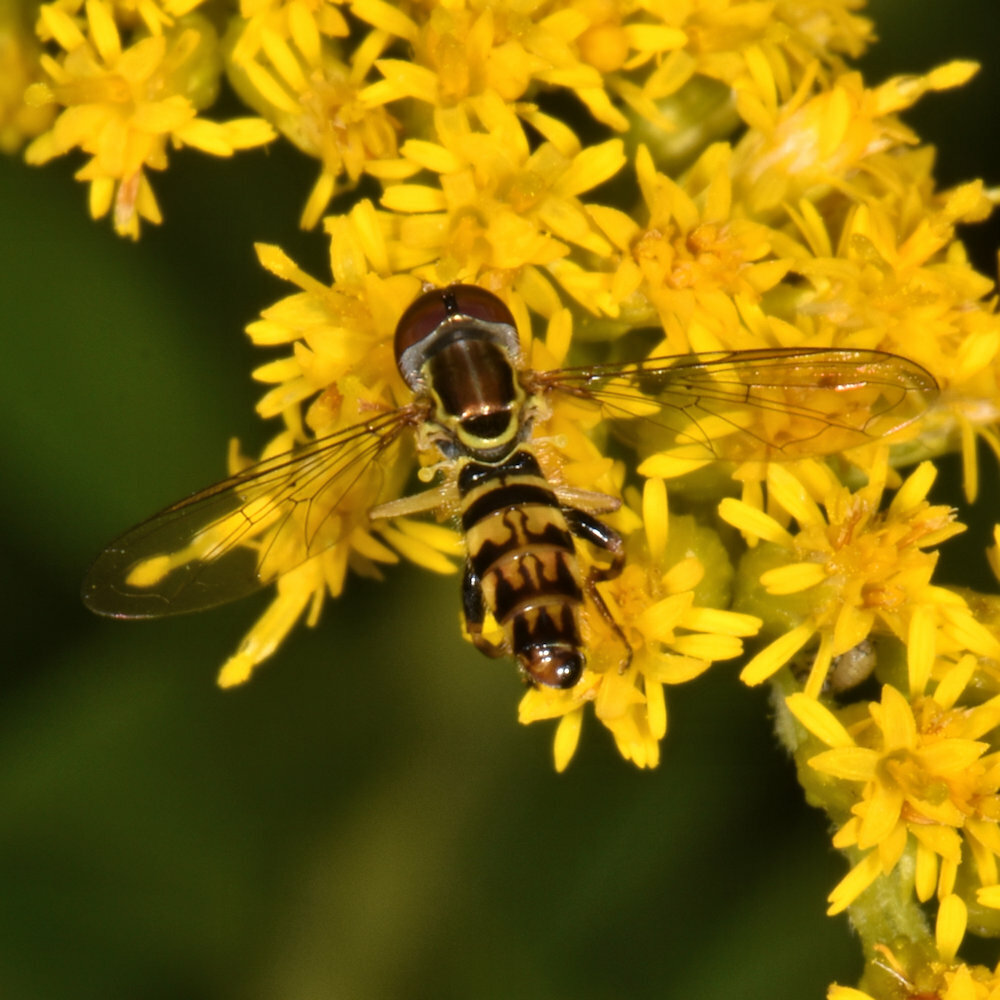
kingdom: Animalia
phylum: Arthropoda
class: Insecta
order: Diptera
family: Syrphidae
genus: Toxomerus
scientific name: Toxomerus geminatus
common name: Eastern calligrapher
